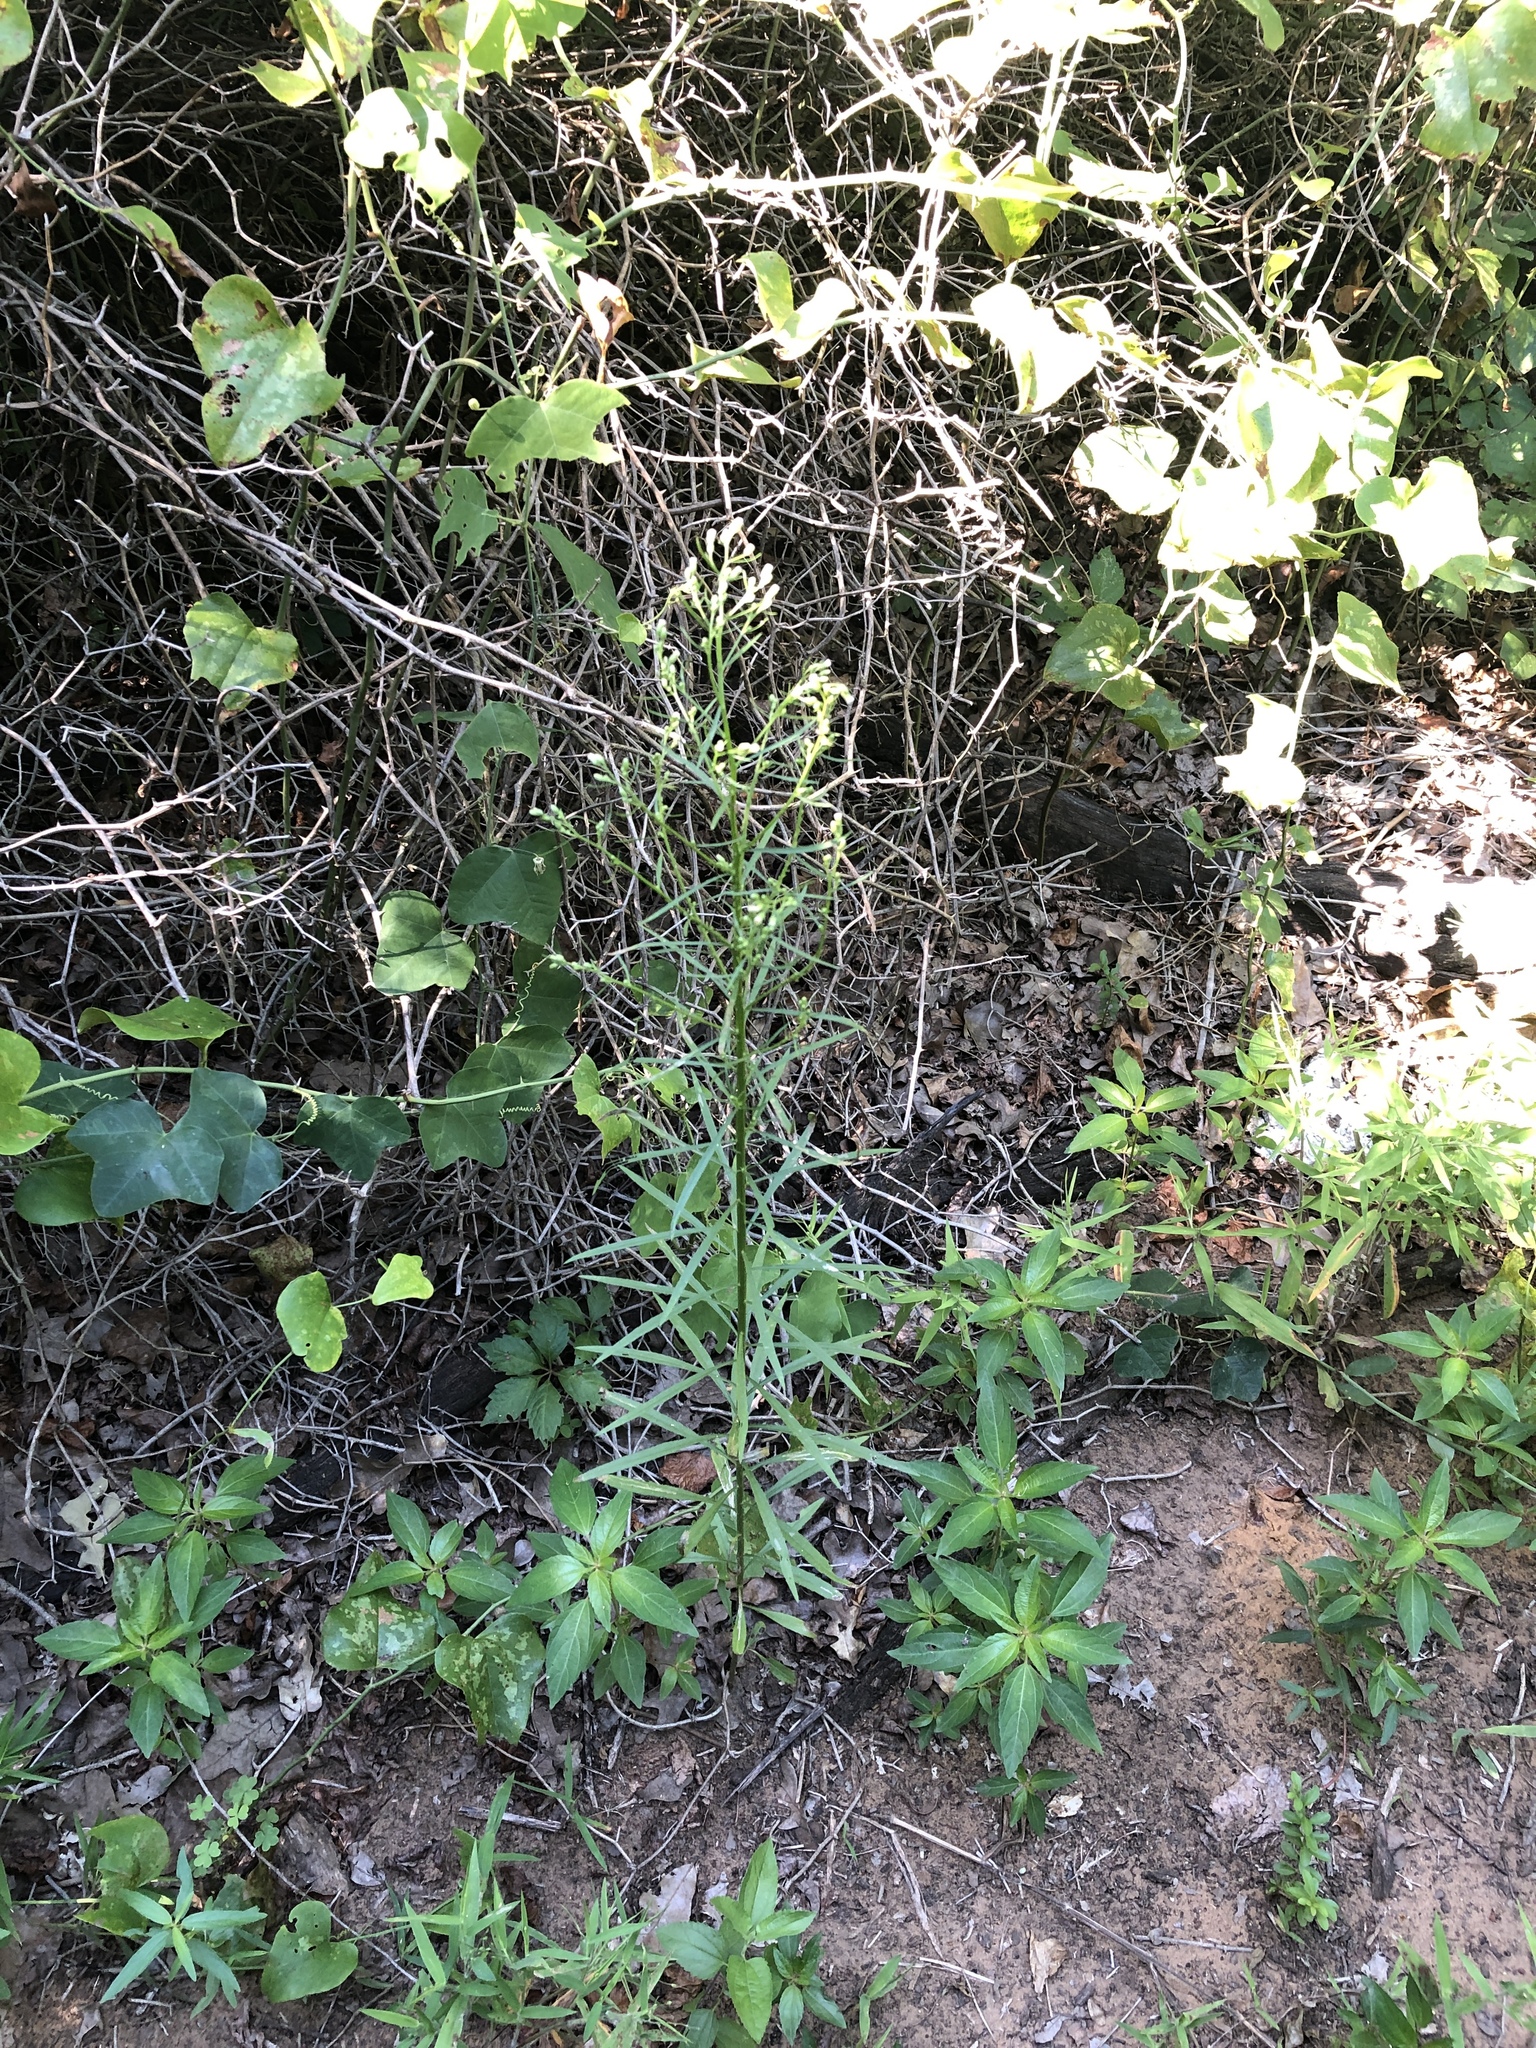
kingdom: Plantae
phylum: Tracheophyta
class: Magnoliopsida
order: Asterales
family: Asteraceae
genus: Erigeron
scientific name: Erigeron canadensis
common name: Canadian fleabane
